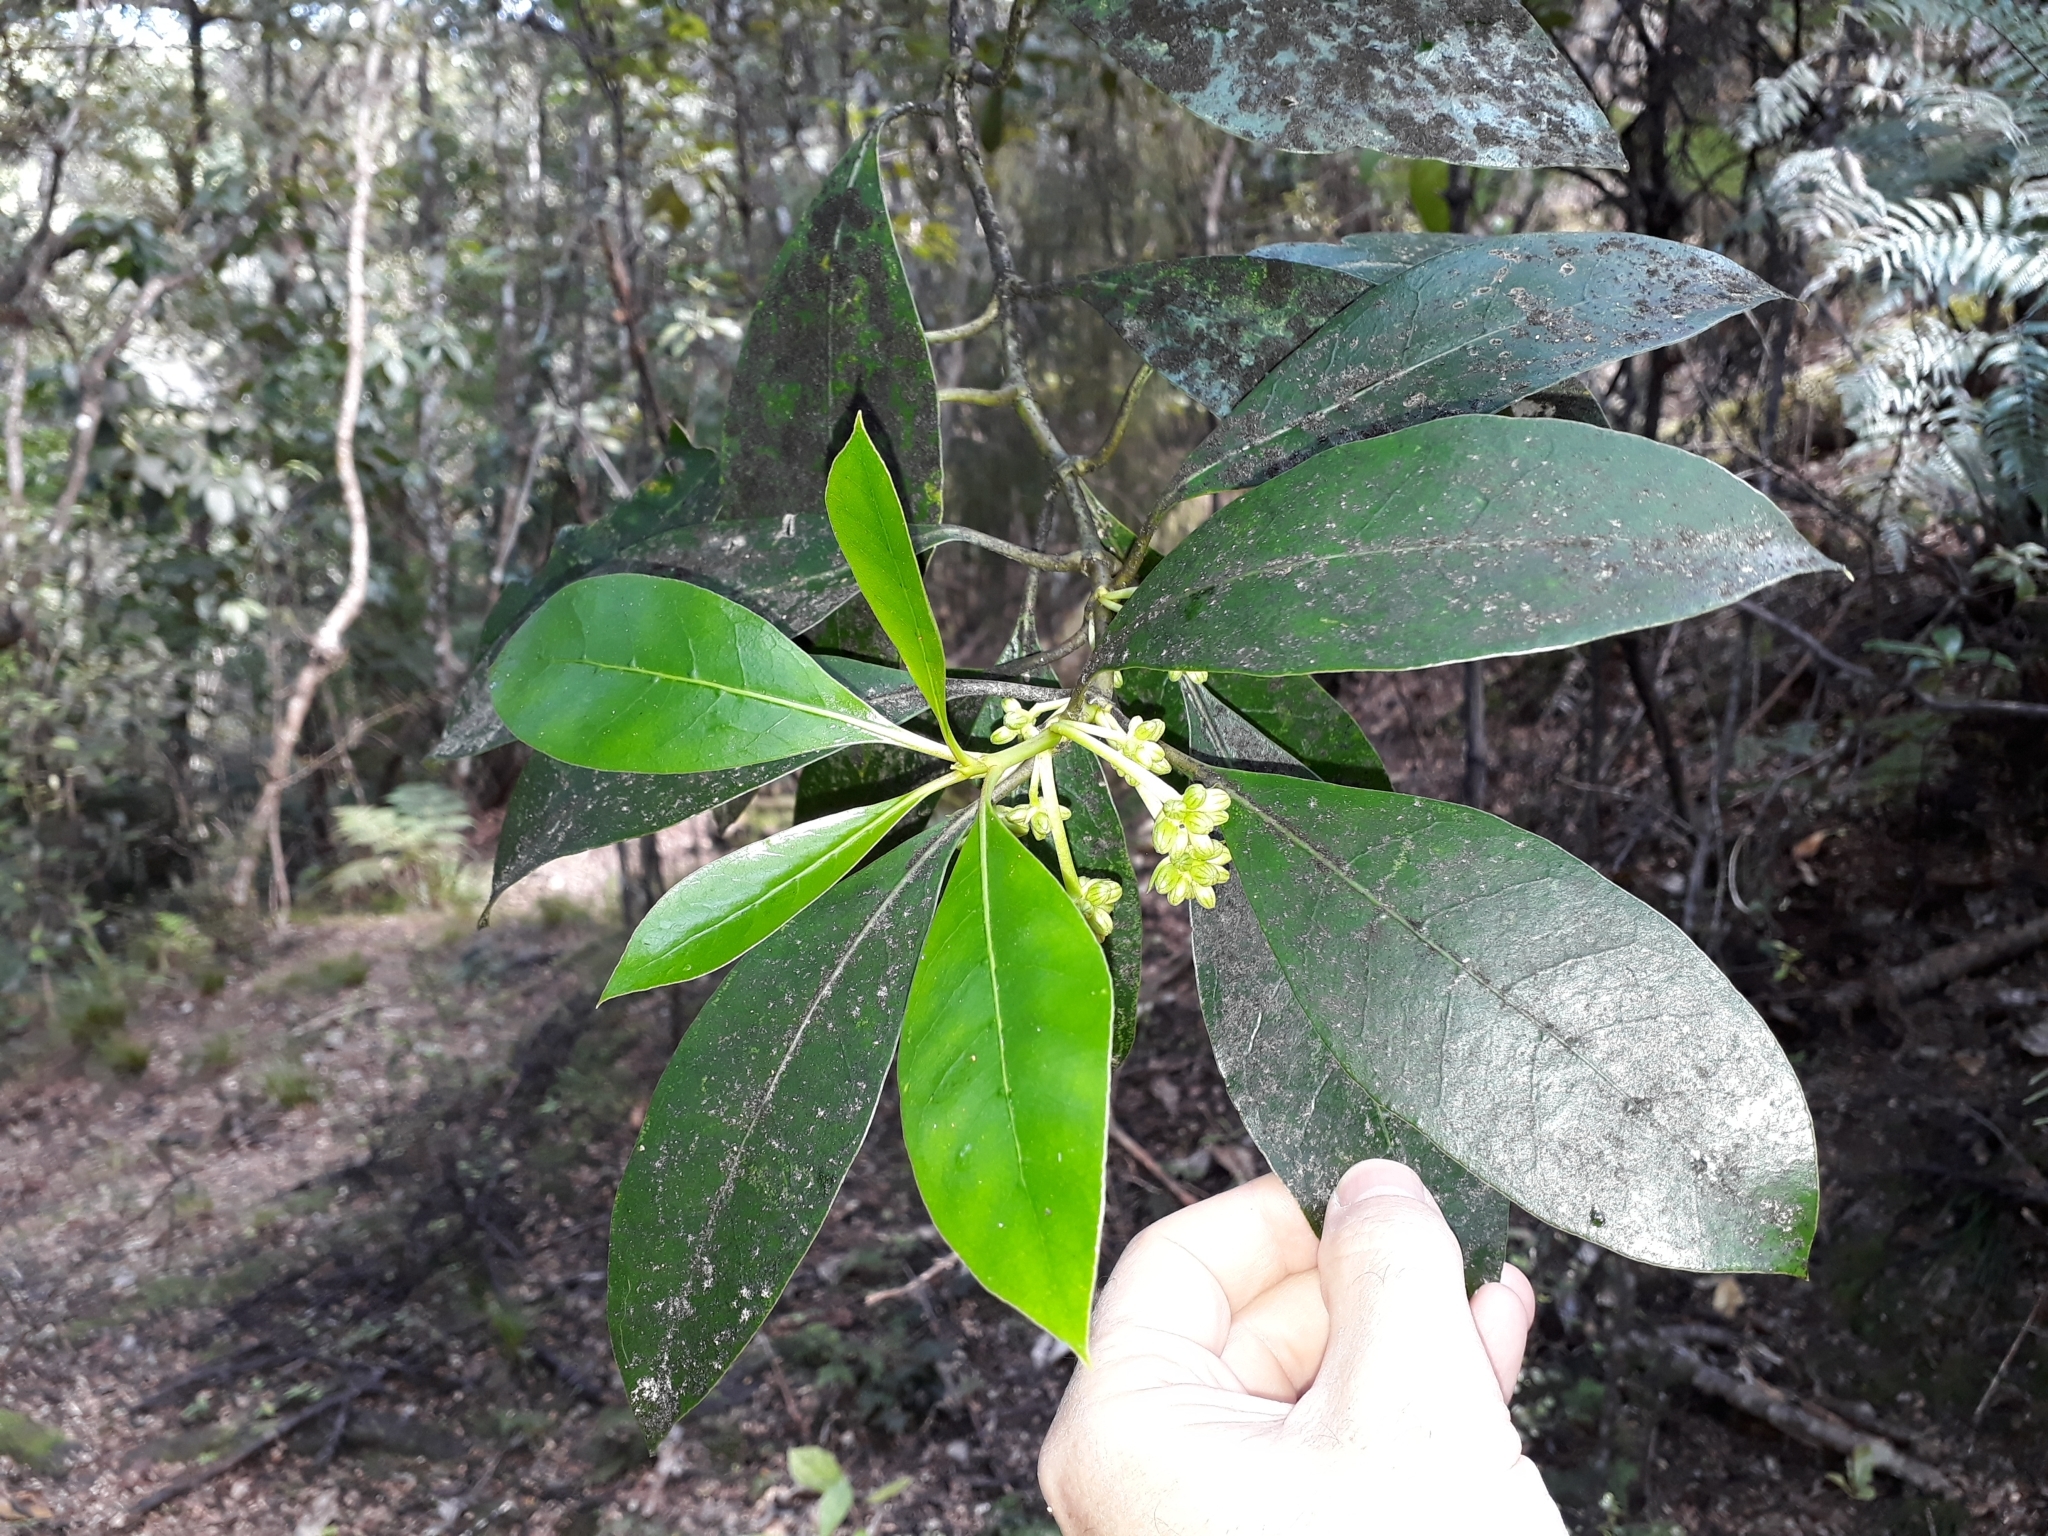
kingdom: Plantae
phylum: Tracheophyta
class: Magnoliopsida
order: Gentianales
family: Rubiaceae
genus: Coprosma
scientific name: Coprosma lucida
